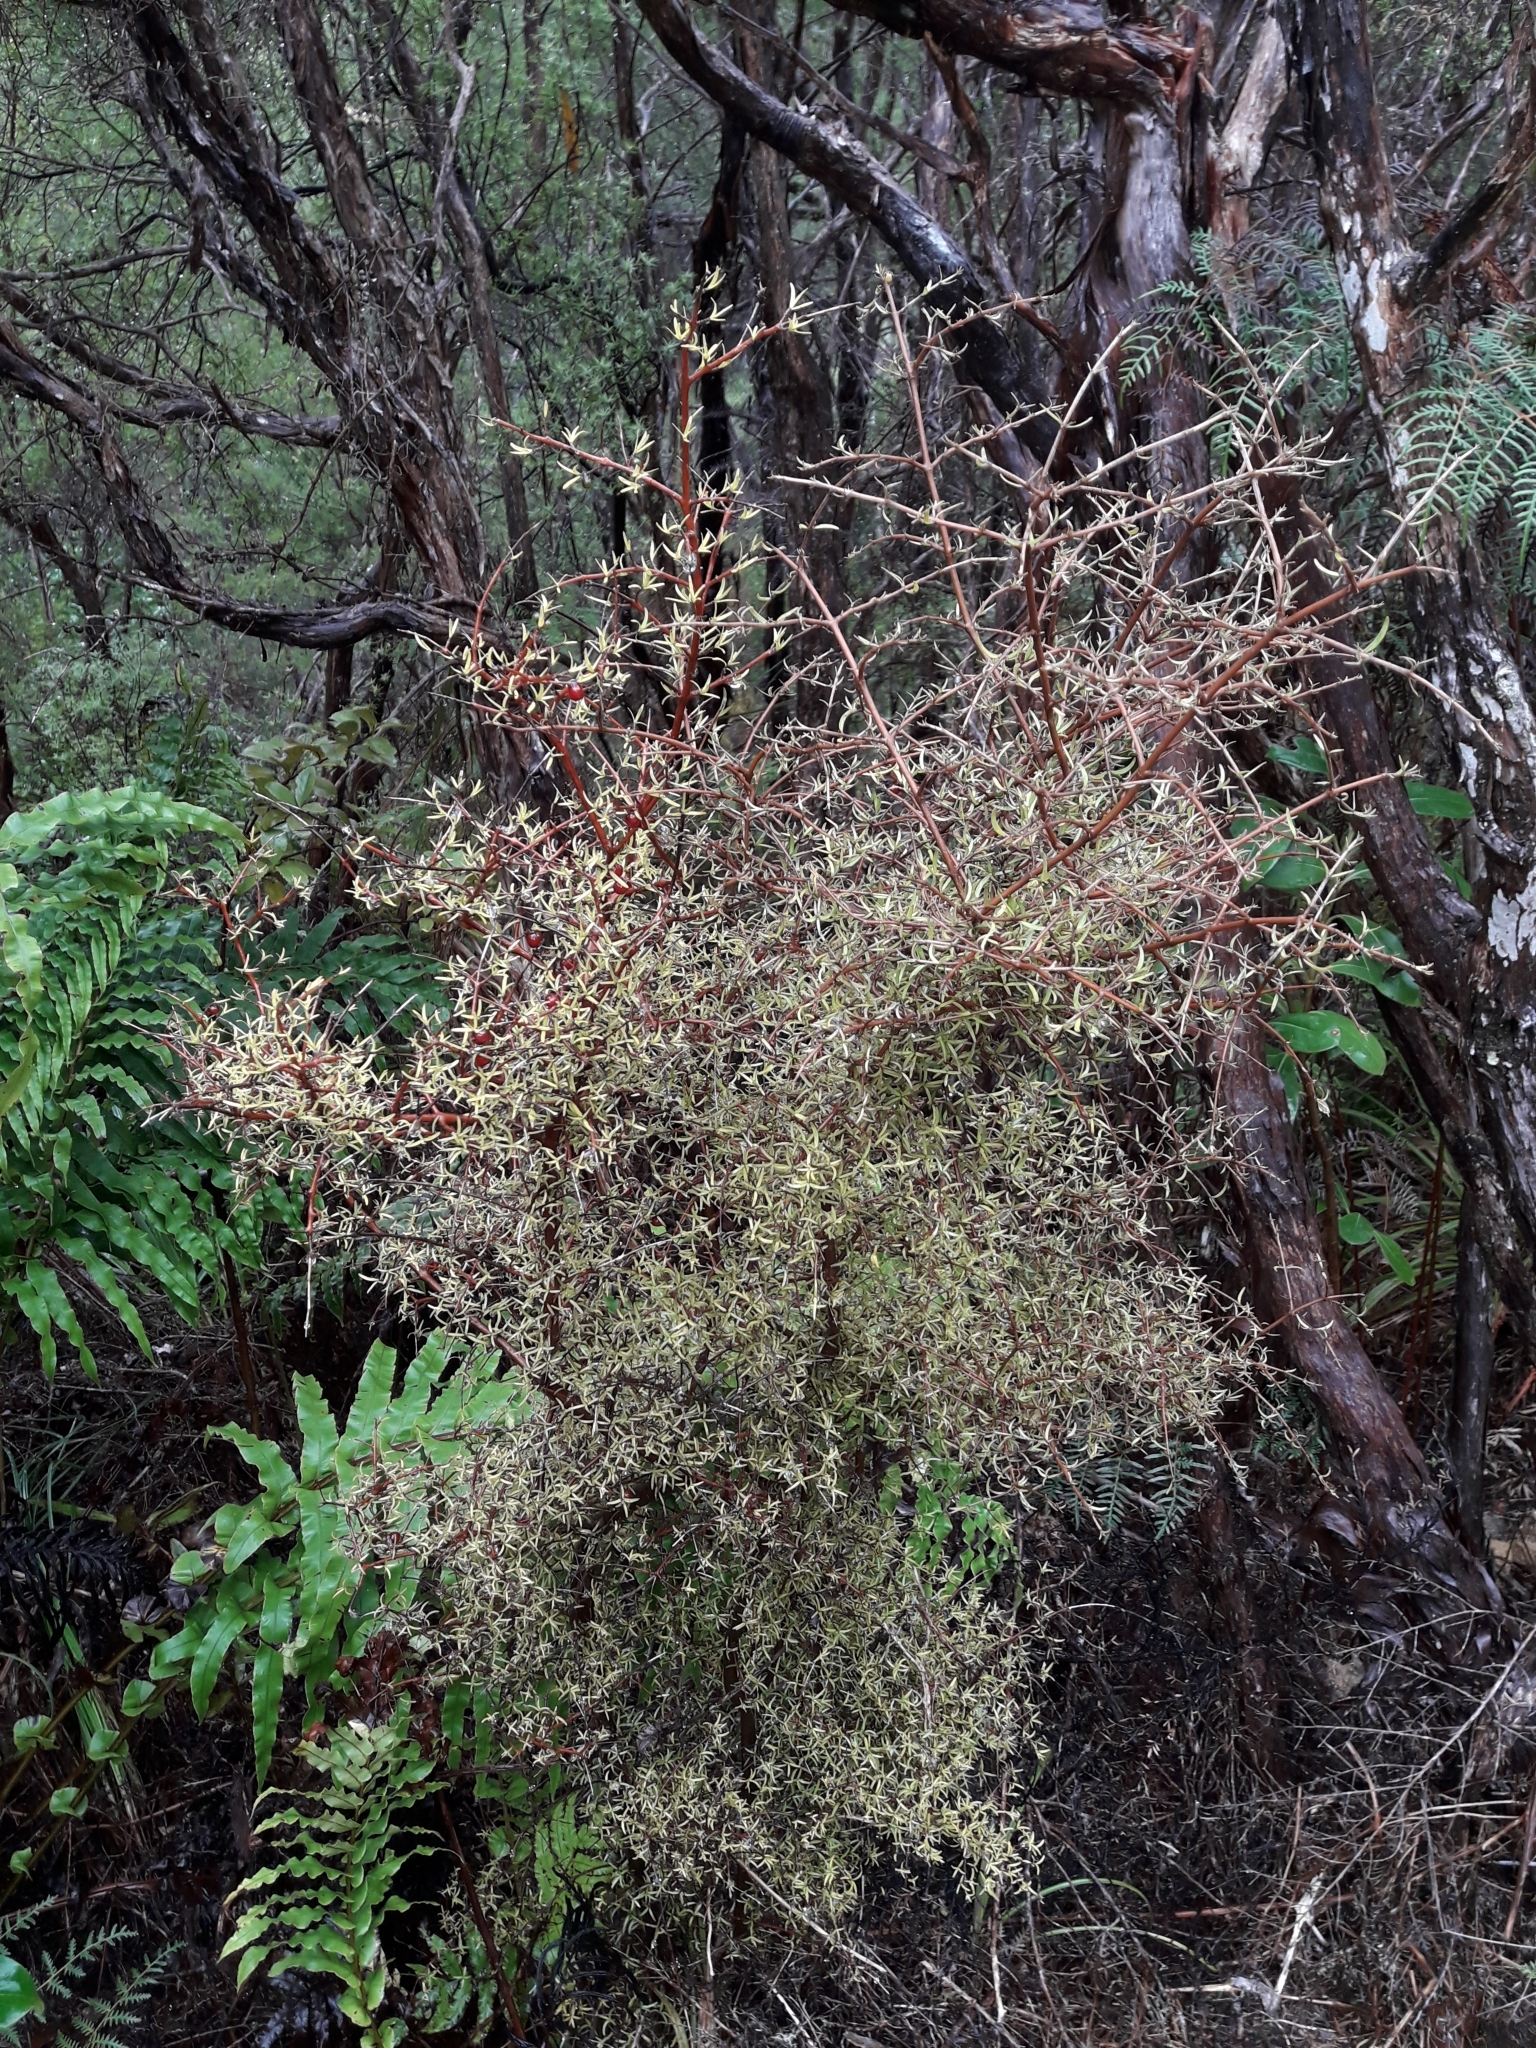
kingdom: Plantae
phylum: Tracheophyta
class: Magnoliopsida
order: Gentianales
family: Rubiaceae
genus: Coprosma
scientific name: Coprosma rhamnoides
